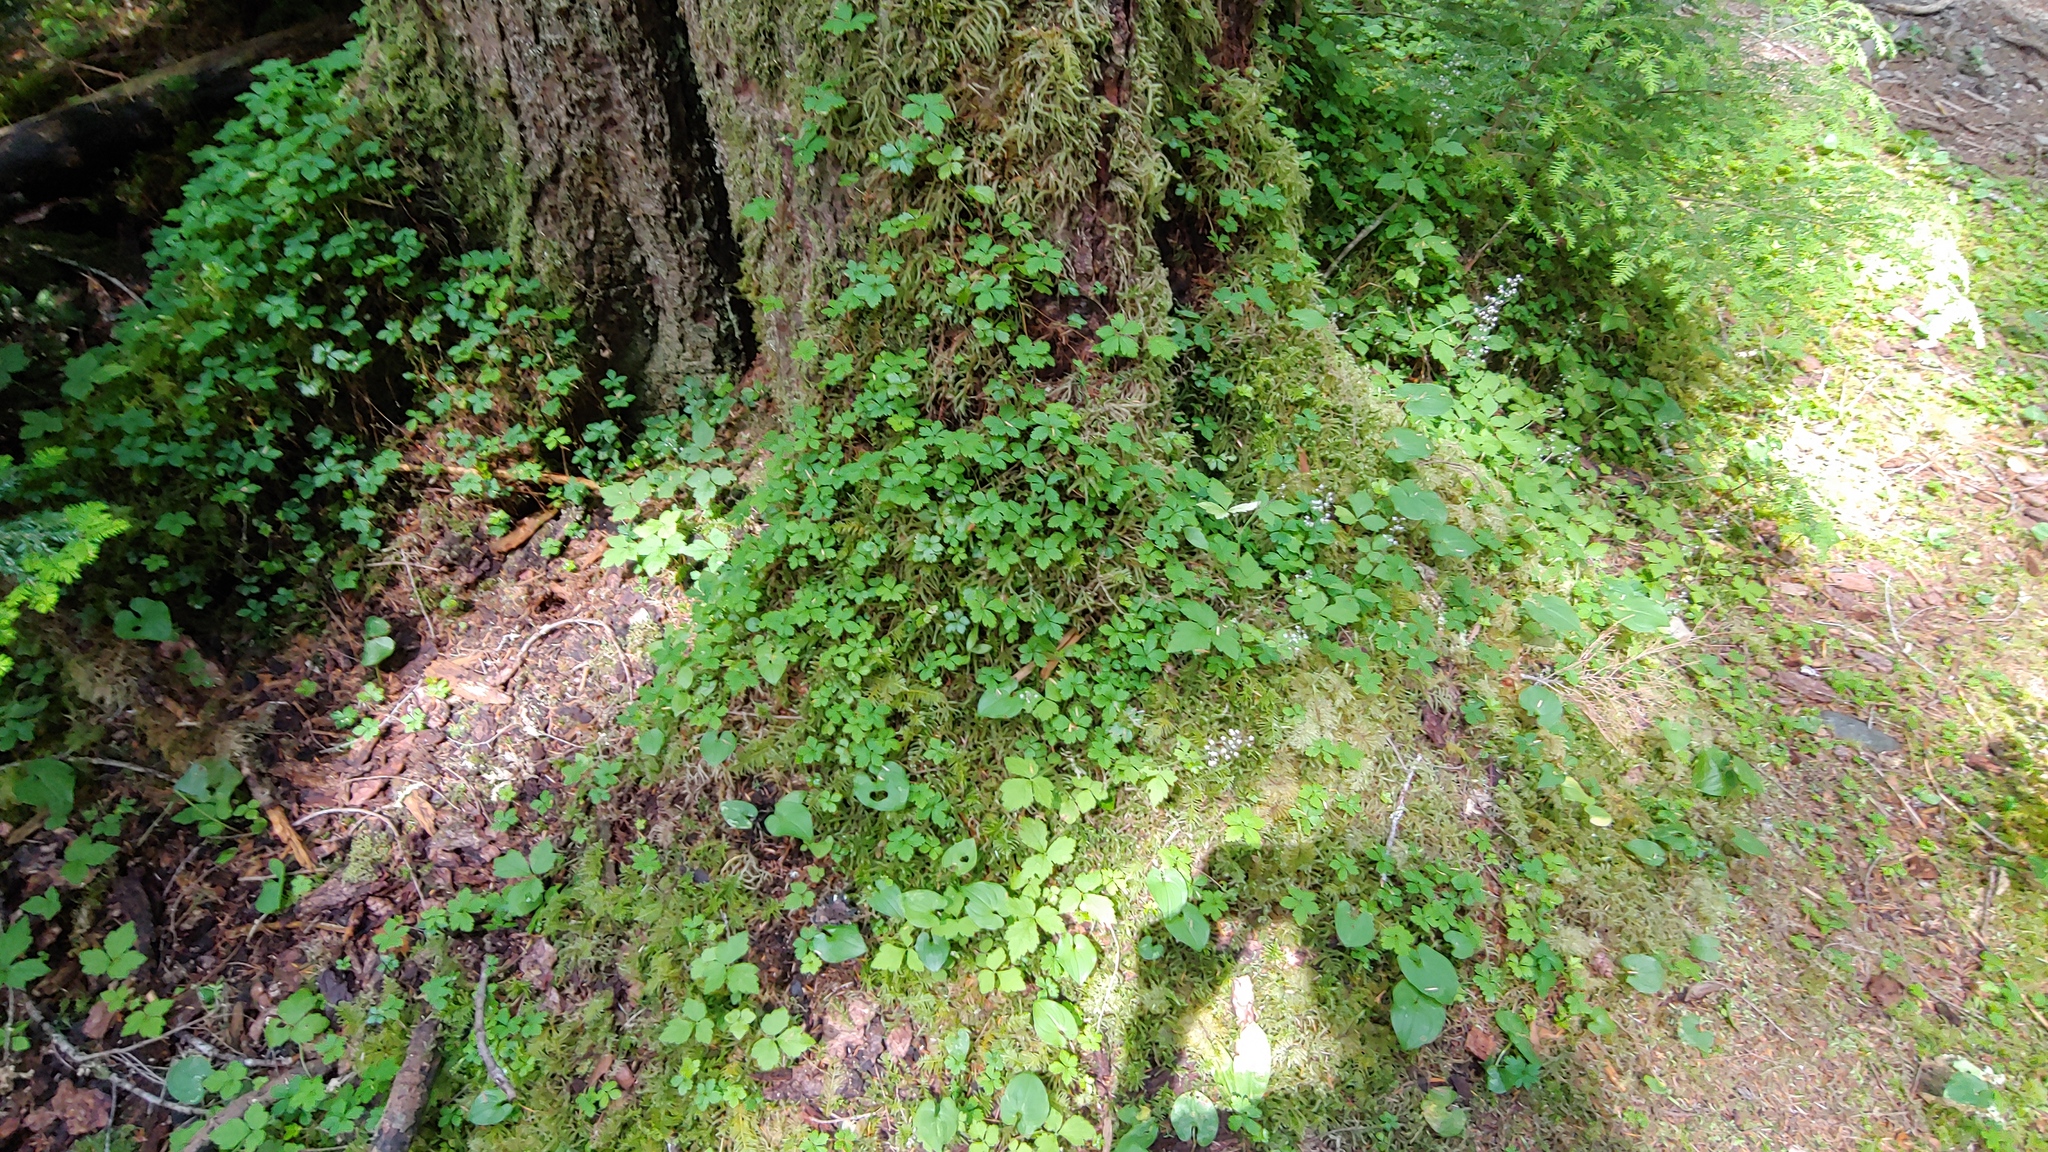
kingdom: Plantae
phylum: Tracheophyta
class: Magnoliopsida
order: Rosales
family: Rosaceae
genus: Rubus
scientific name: Rubus pedatus
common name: Creeping raspberry
